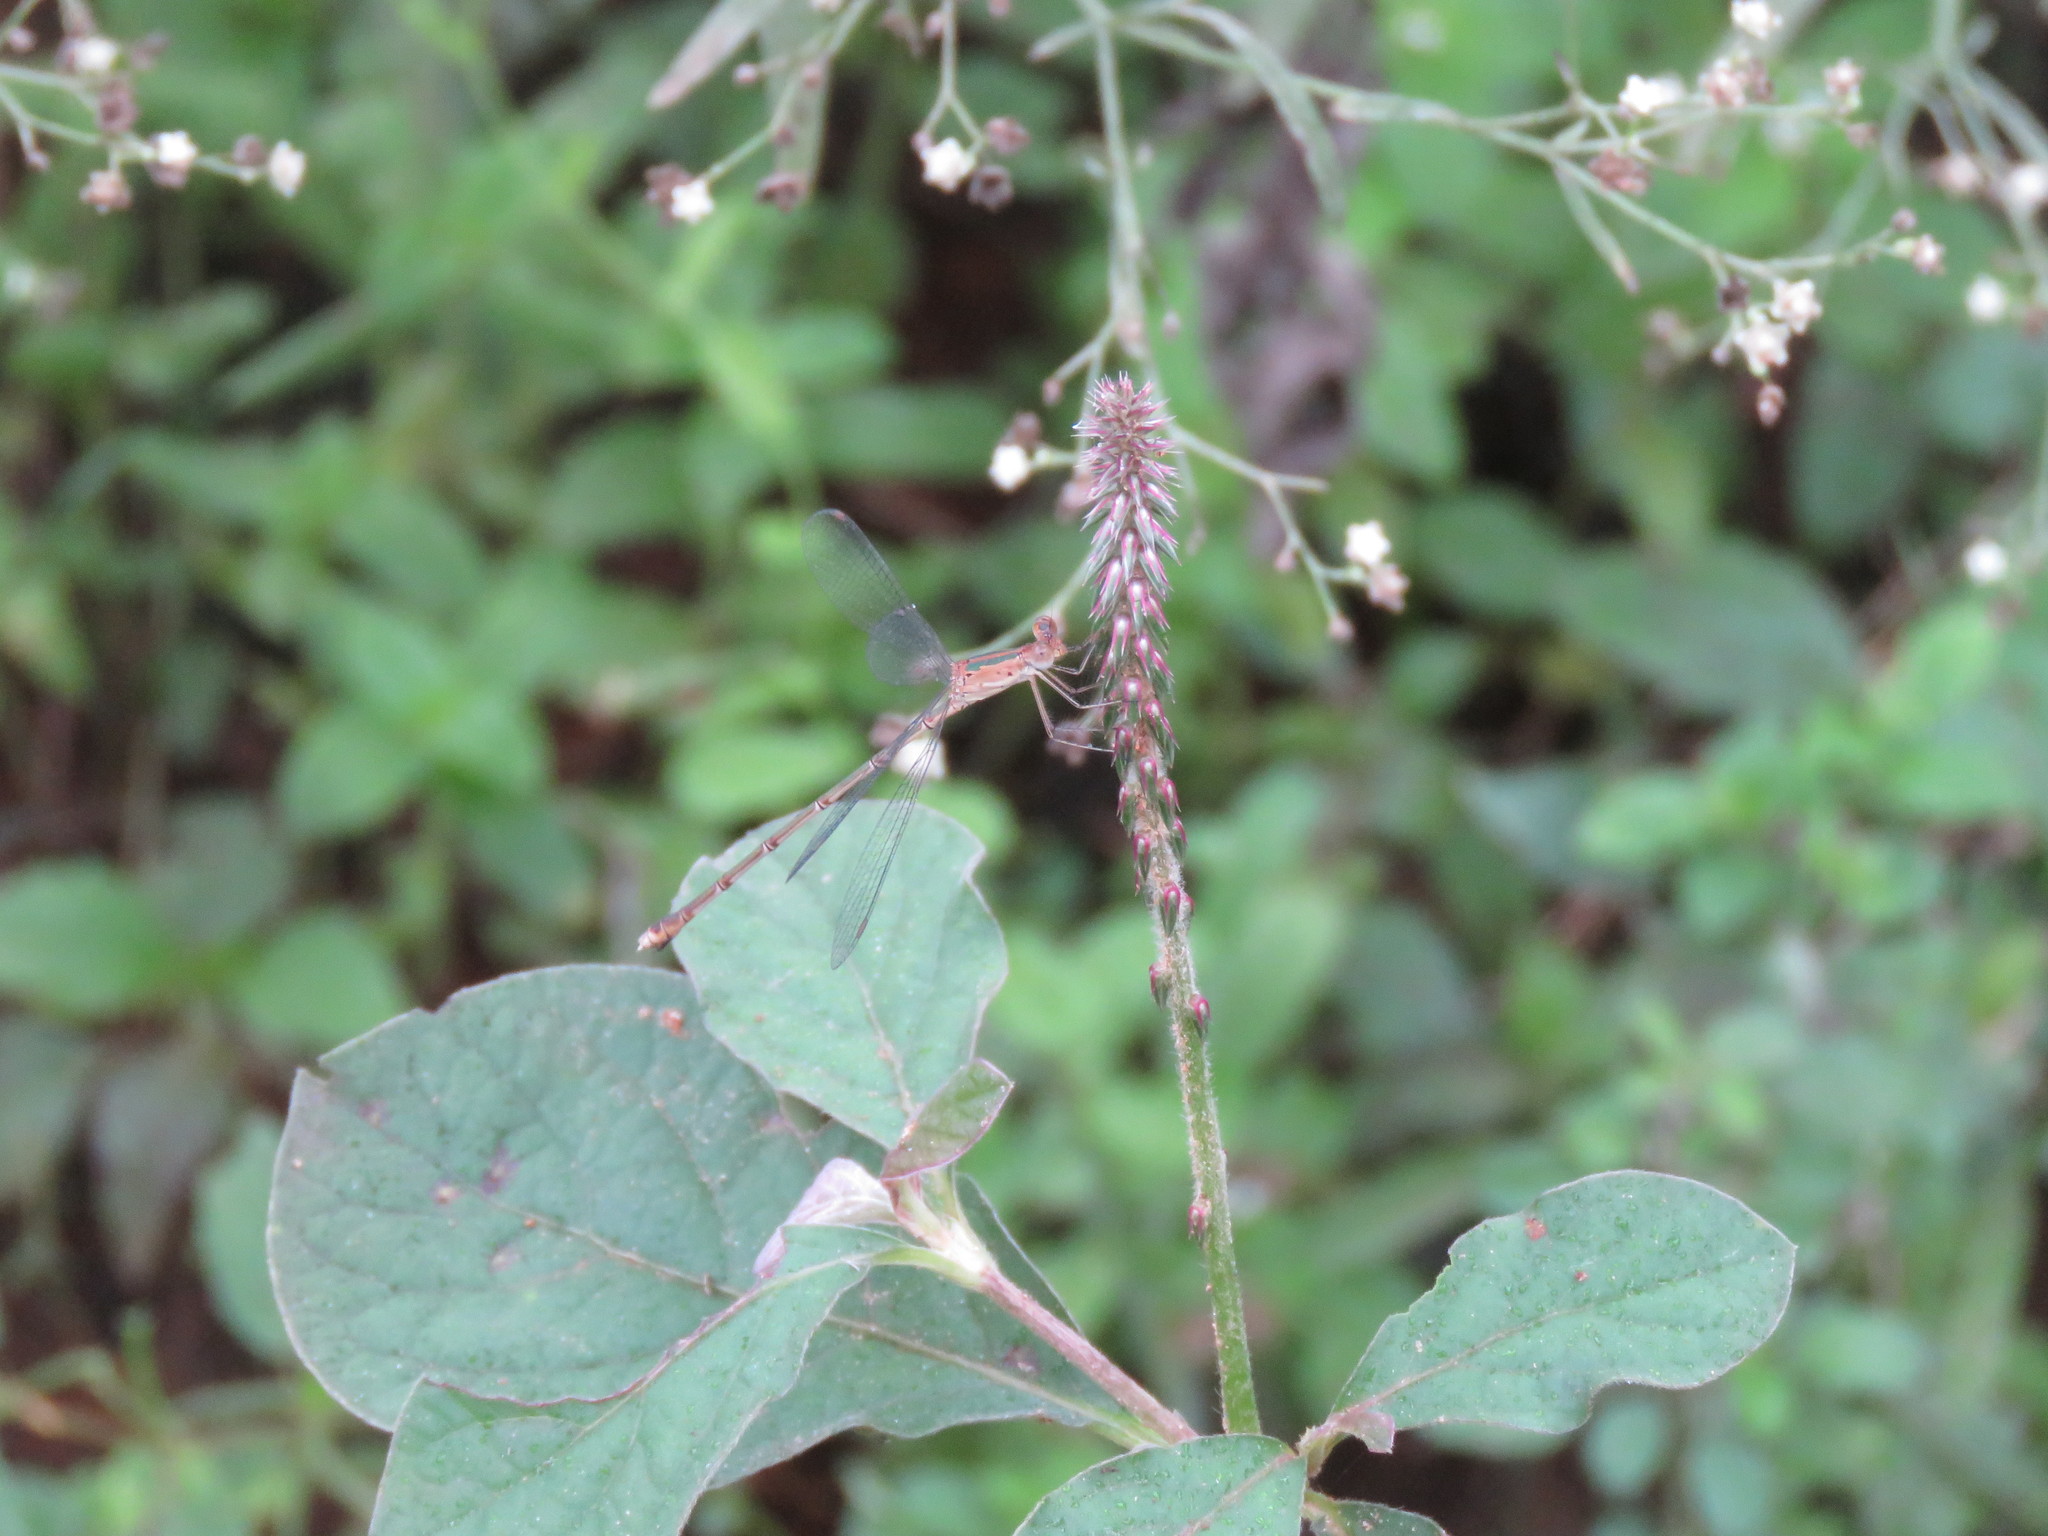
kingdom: Animalia
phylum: Arthropoda
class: Insecta
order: Odonata
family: Lestidae
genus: Lestes
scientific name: Lestes elatus
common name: Emerald spreadwing
